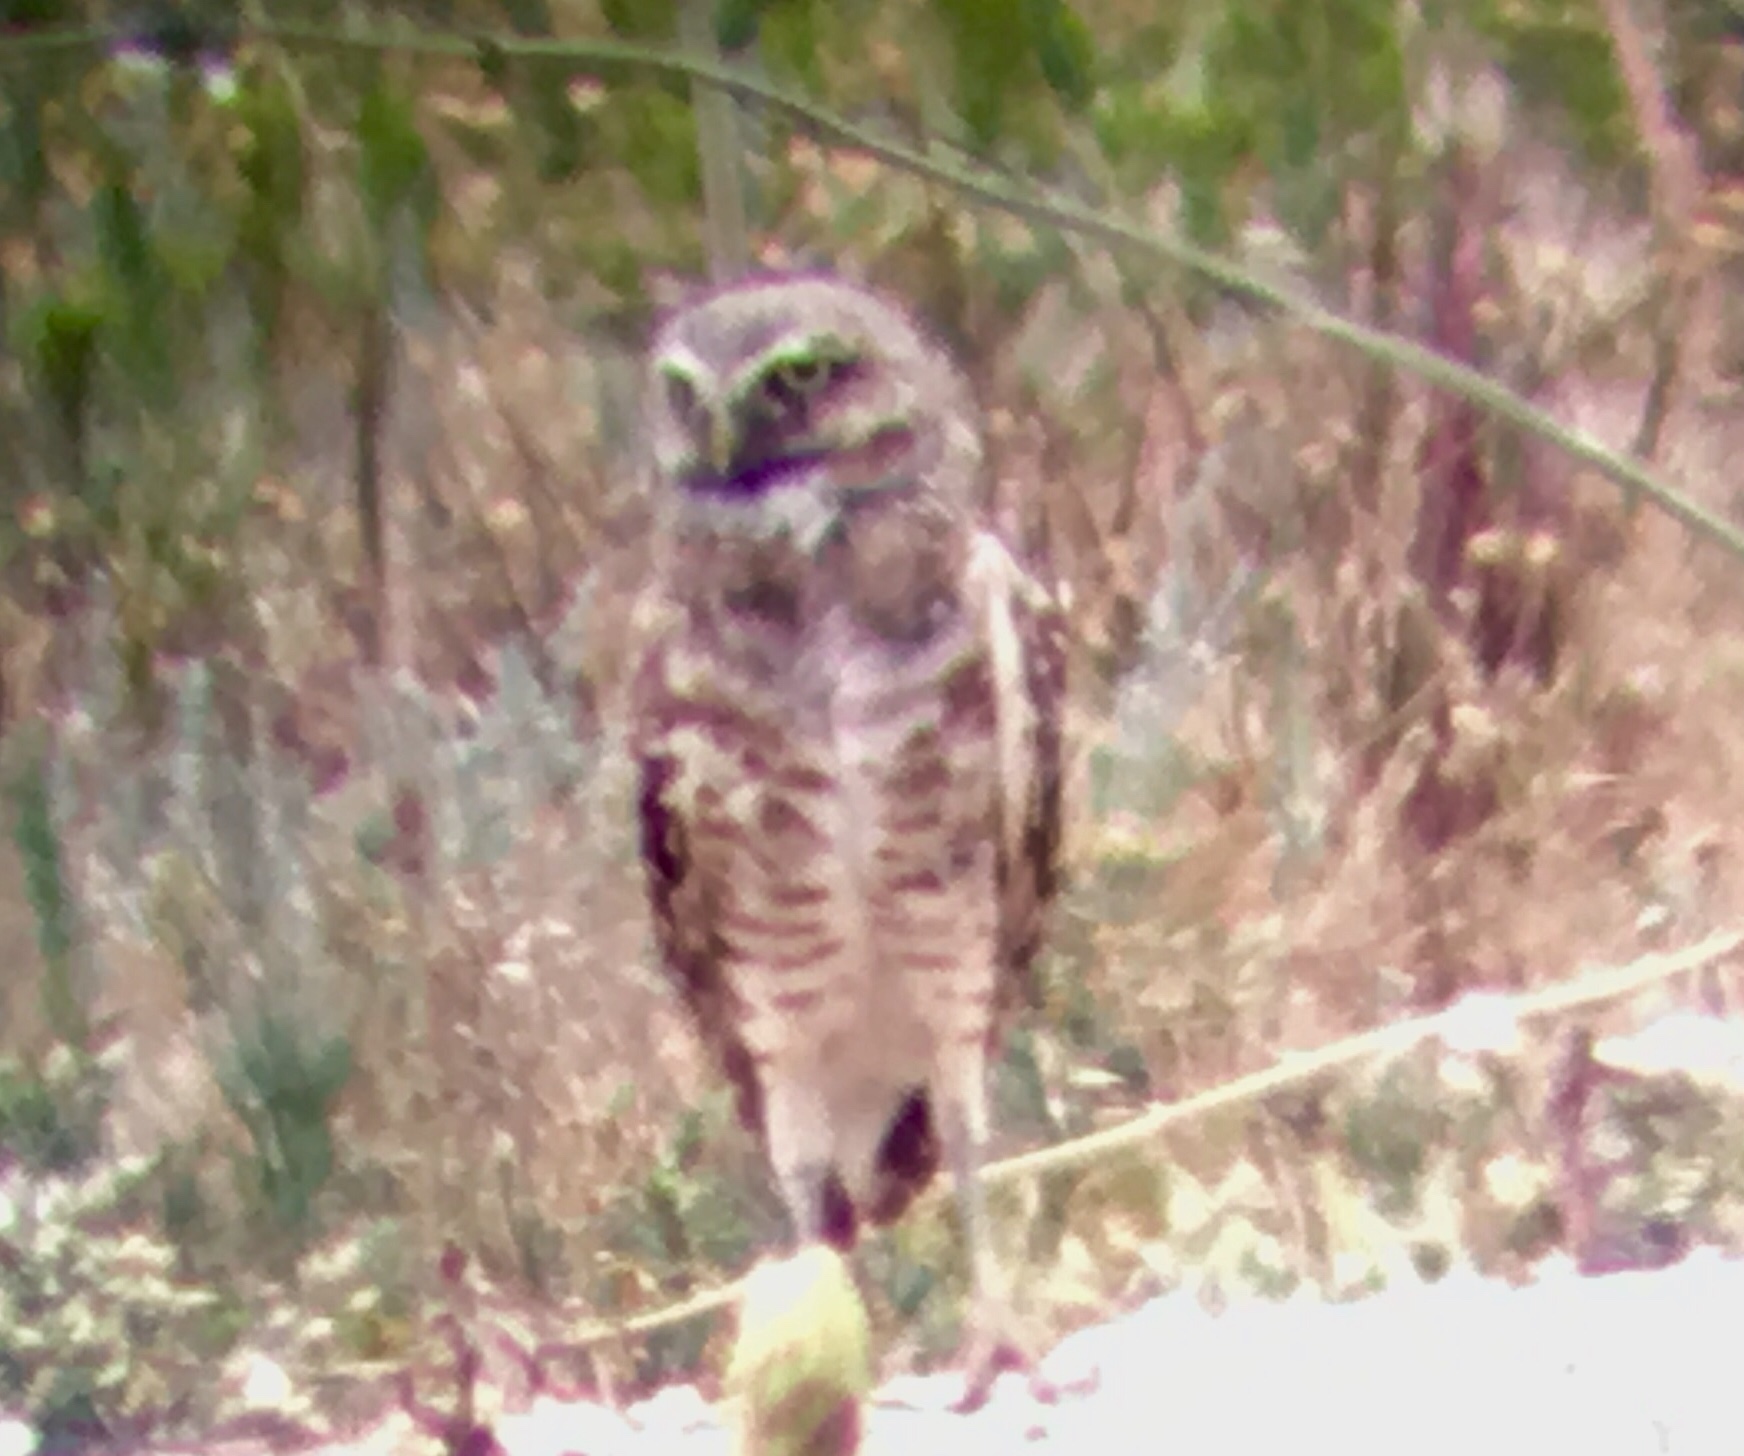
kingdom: Animalia
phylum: Chordata
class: Aves
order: Strigiformes
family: Strigidae
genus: Athene
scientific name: Athene cunicularia
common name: Burrowing owl
